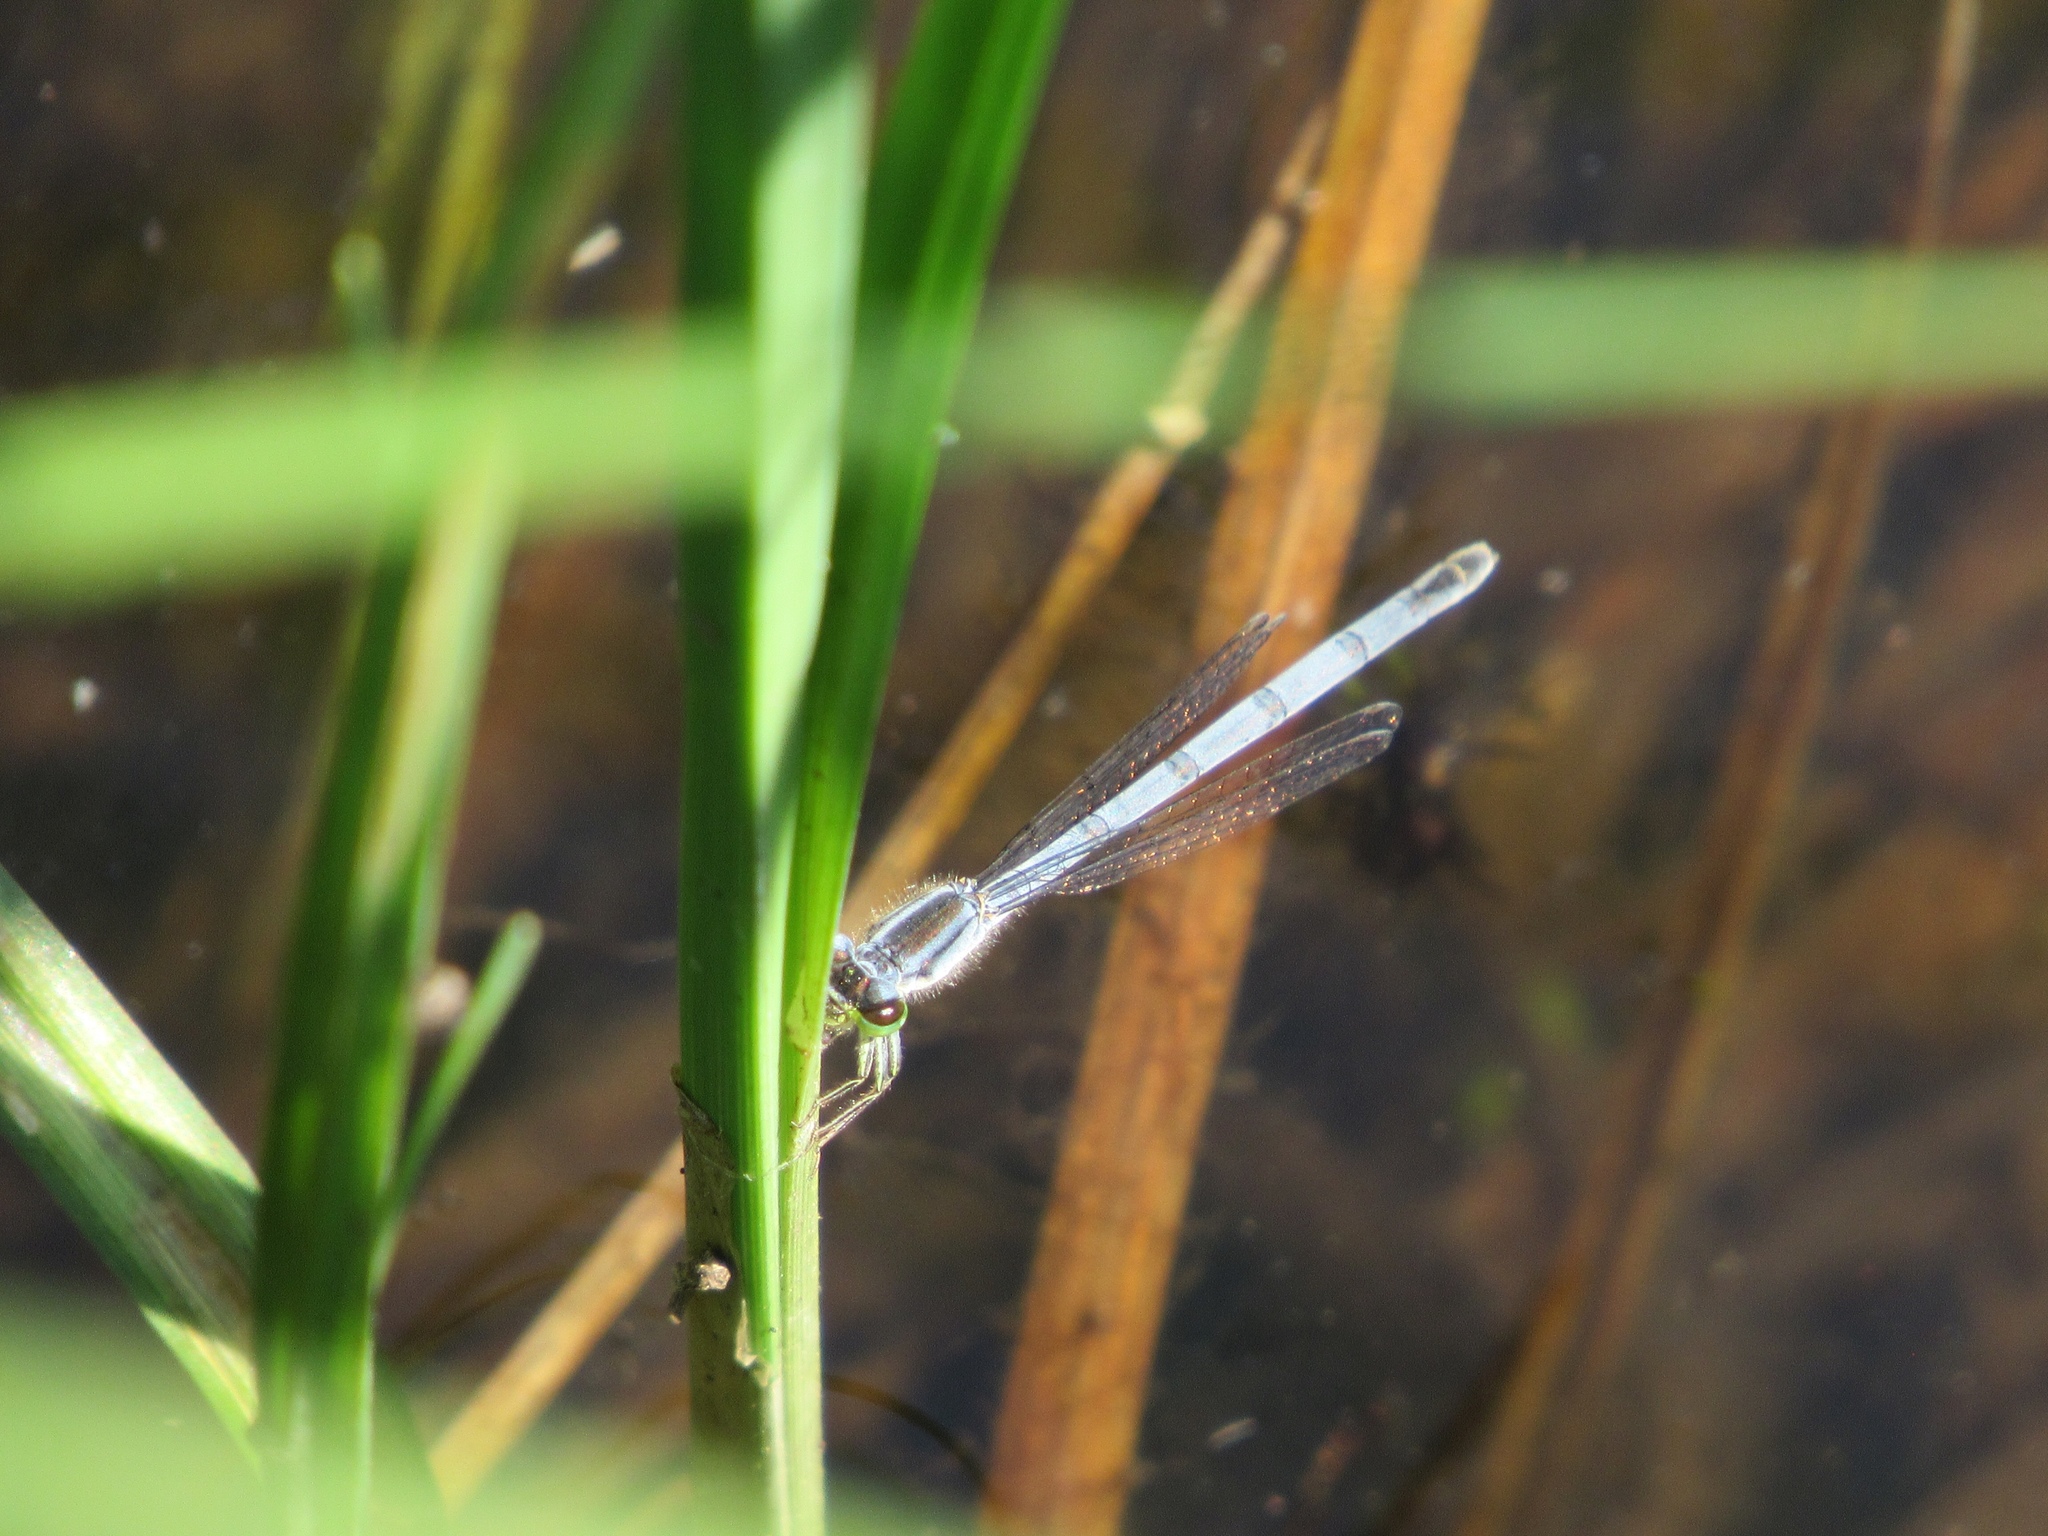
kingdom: Animalia
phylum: Arthropoda
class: Insecta
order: Odonata
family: Coenagrionidae
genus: Ischnura
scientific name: Ischnura verticalis
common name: Eastern forktail
